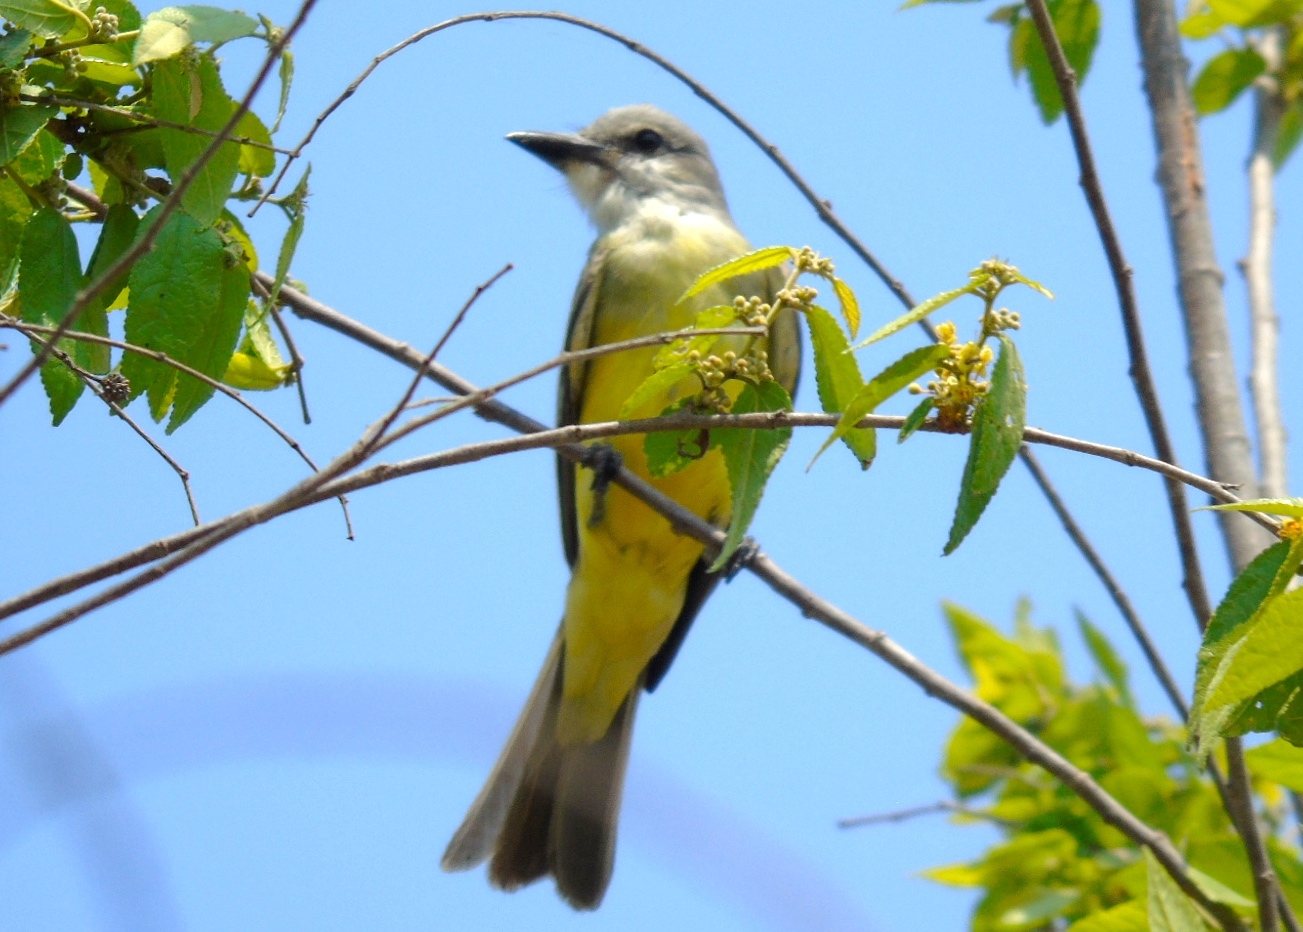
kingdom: Animalia
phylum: Chordata
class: Aves
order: Passeriformes
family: Tyrannidae
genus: Tyrannus
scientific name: Tyrannus melancholicus
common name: Tropical kingbird
